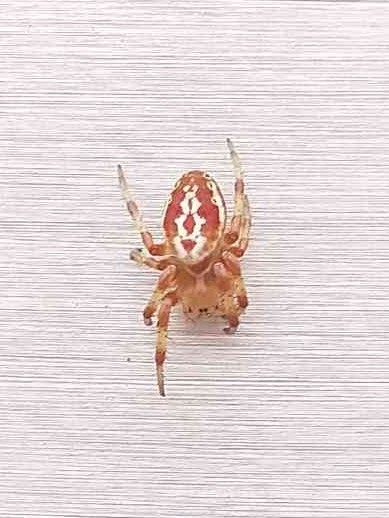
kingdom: Animalia
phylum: Arthropoda
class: Arachnida
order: Araneae
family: Araneidae
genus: Araniella
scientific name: Araniella displicata
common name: Sixspotted orb weaver
